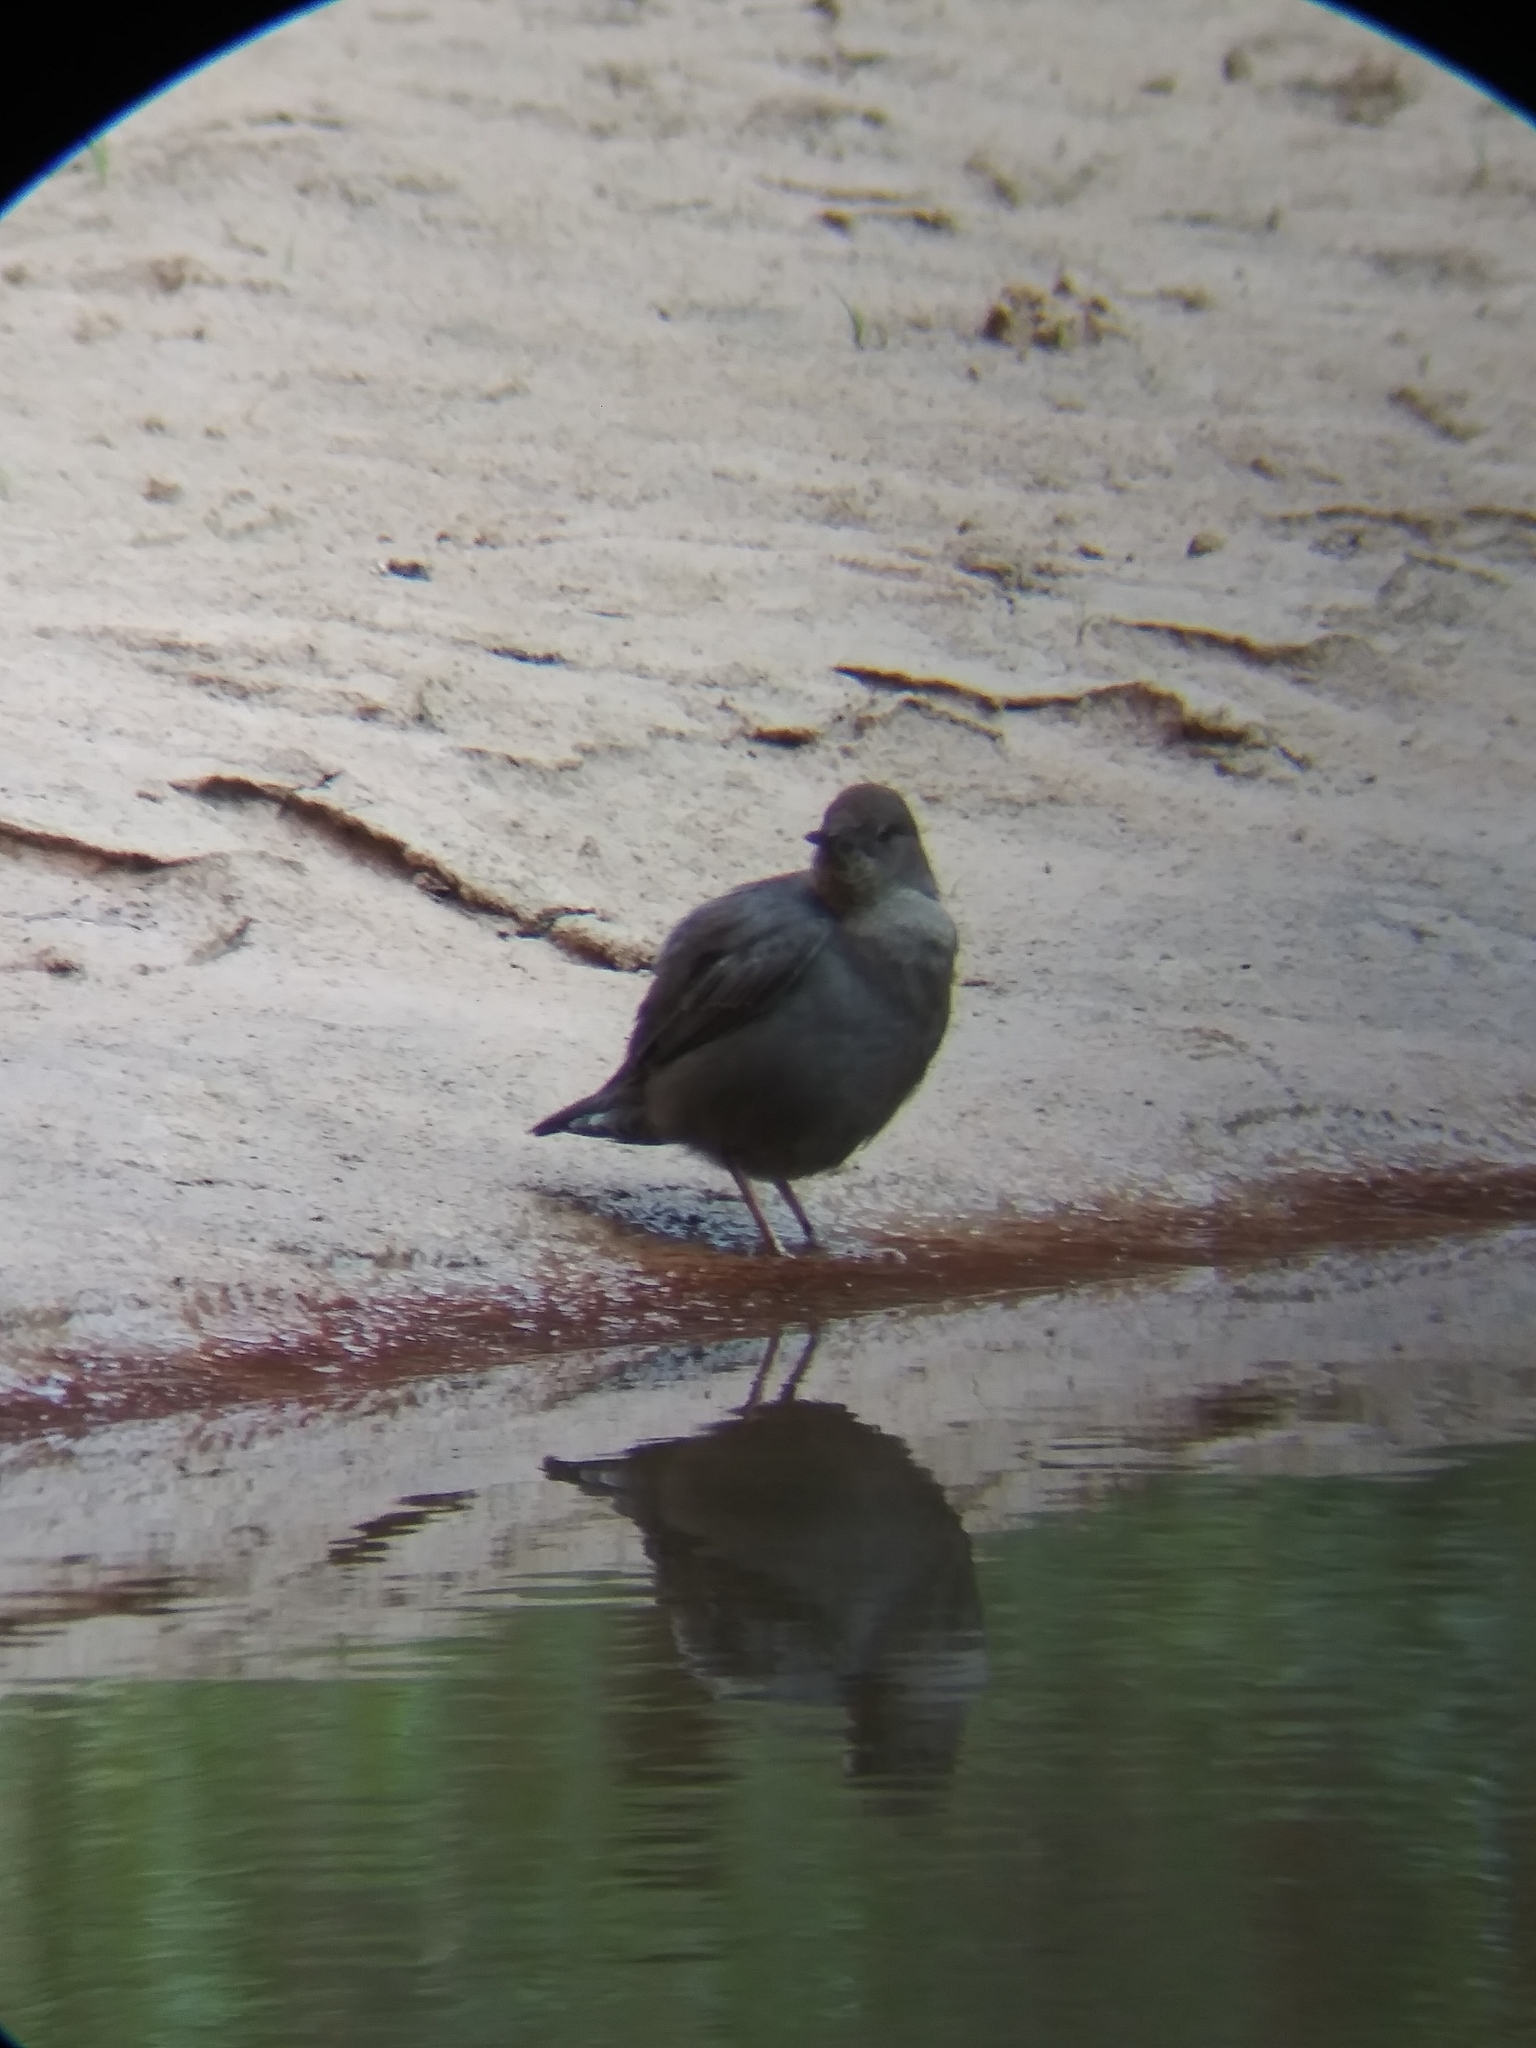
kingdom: Animalia
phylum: Chordata
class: Aves
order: Passeriformes
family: Cinclidae
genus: Cinclus
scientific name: Cinclus mexicanus
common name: American dipper
